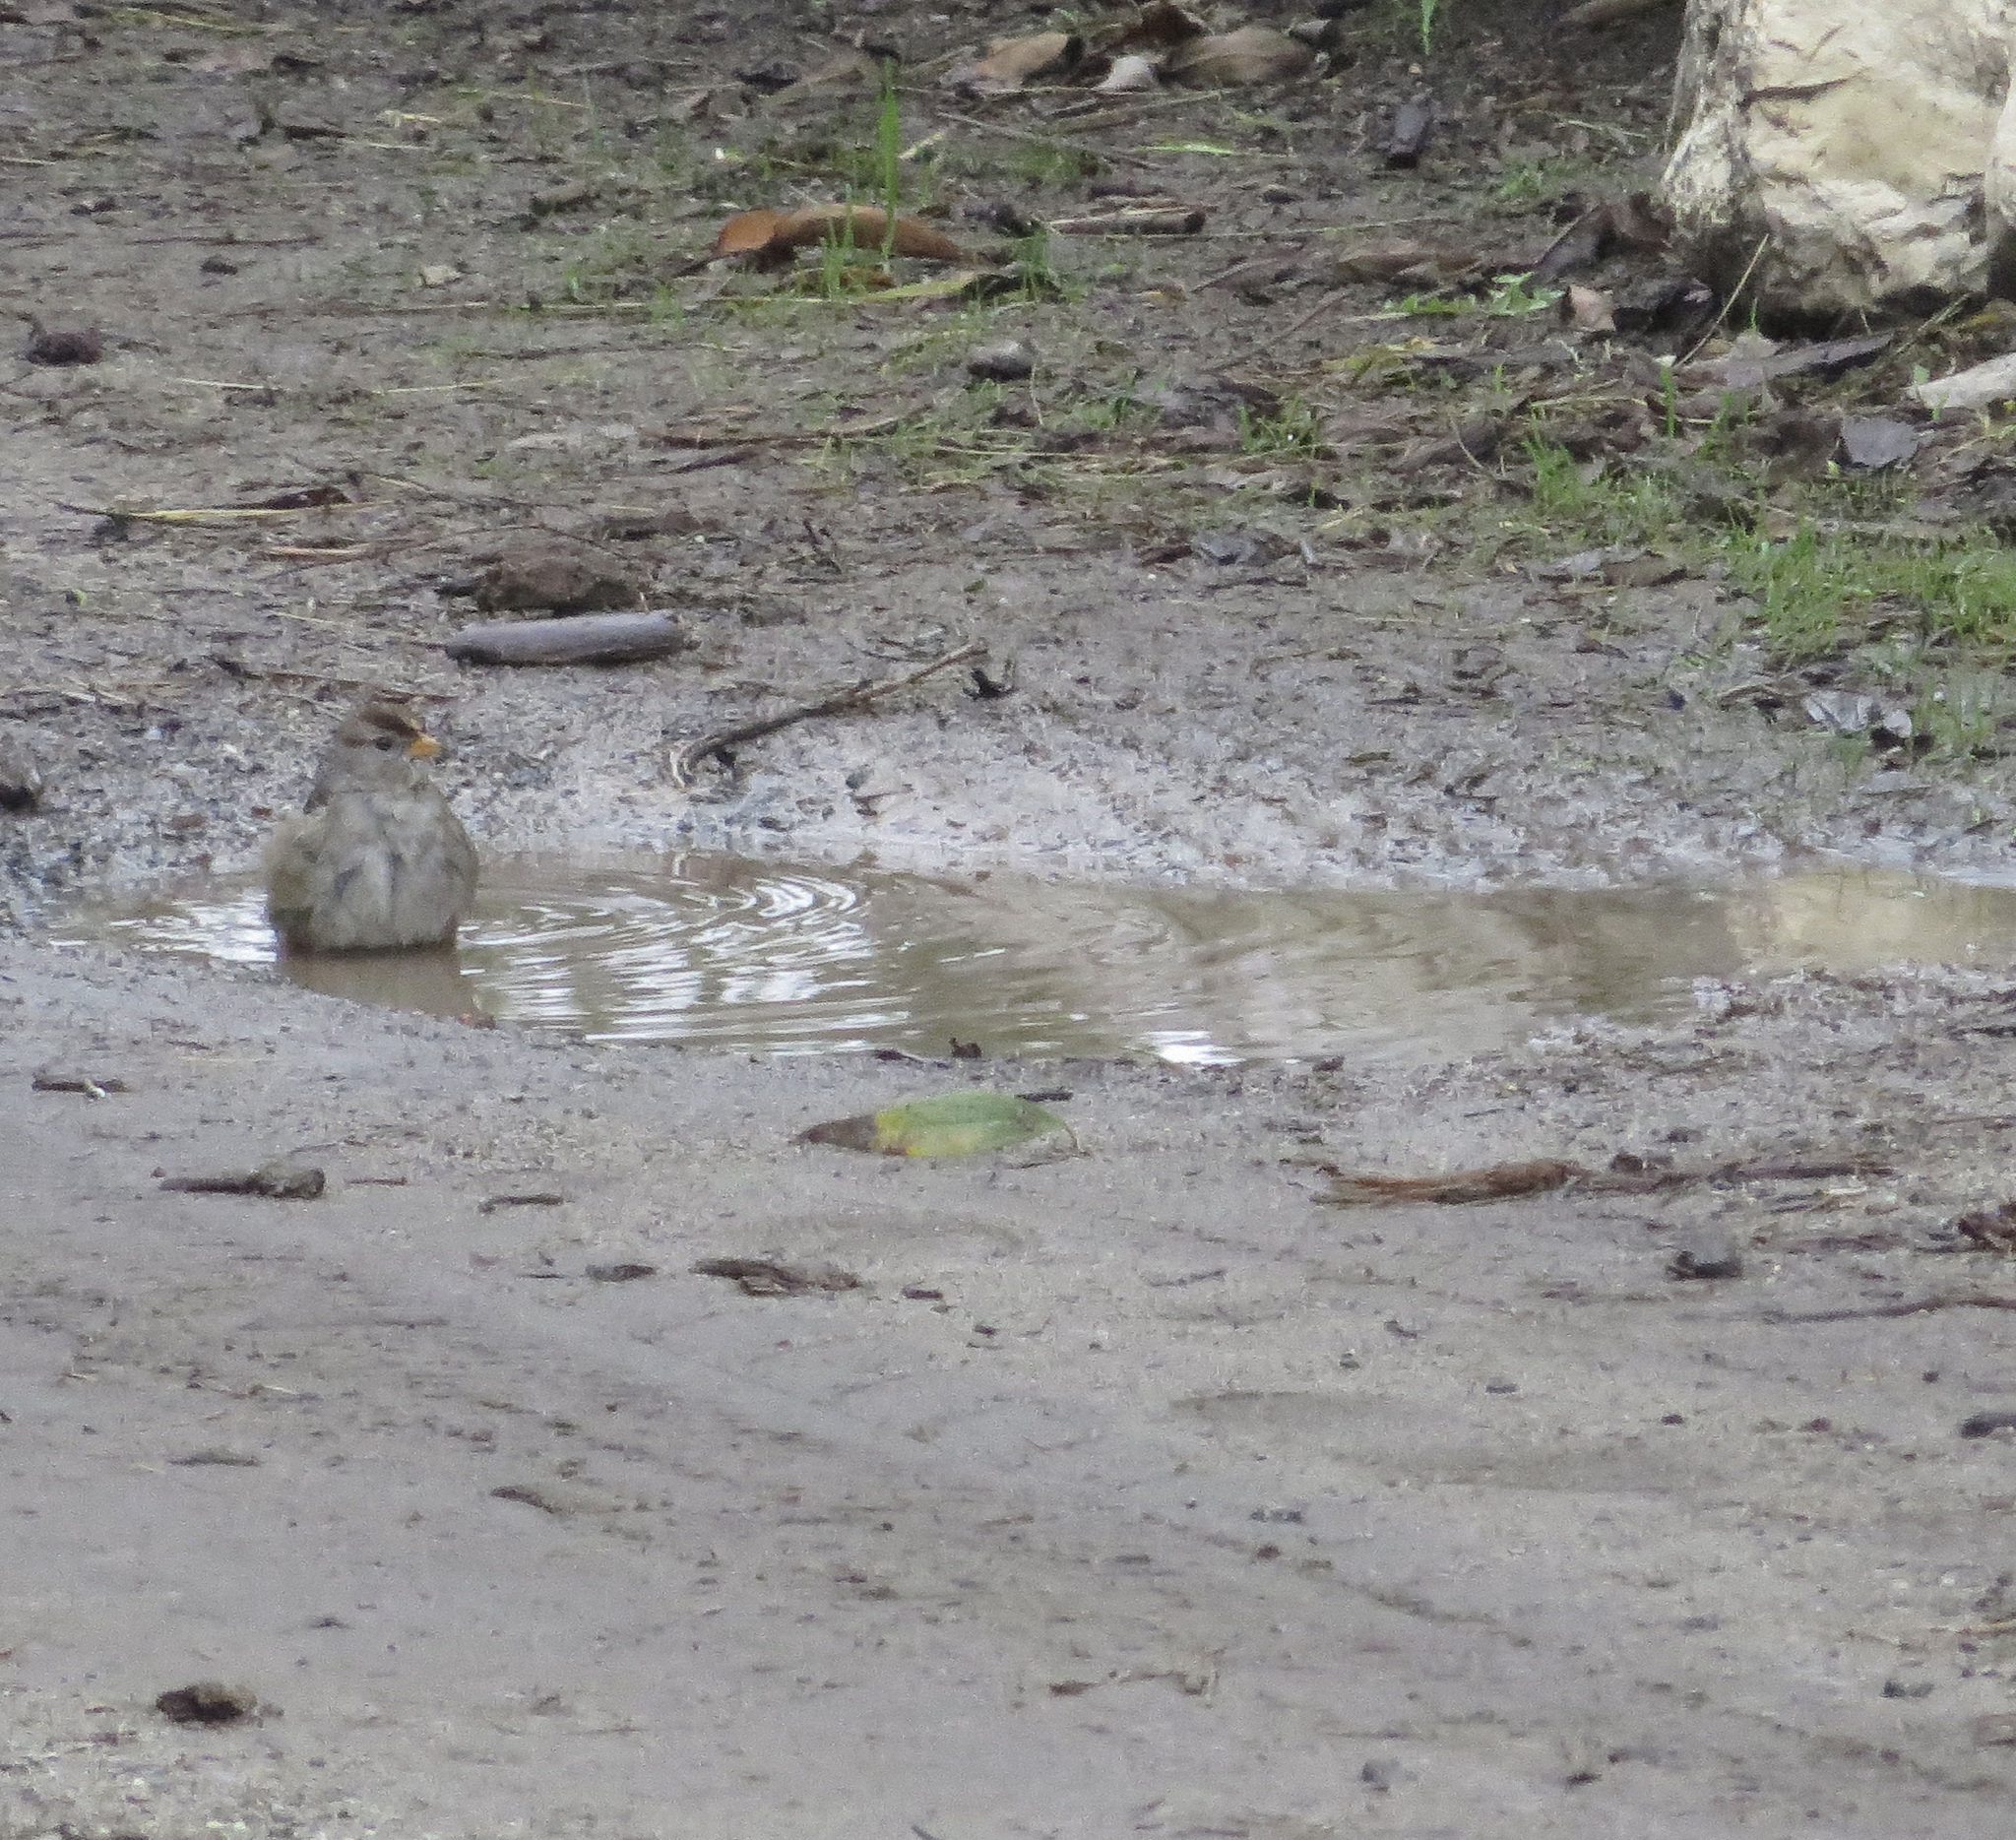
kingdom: Animalia
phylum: Chordata
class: Aves
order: Passeriformes
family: Passerellidae
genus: Zonotrichia
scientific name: Zonotrichia leucophrys
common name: White-crowned sparrow
